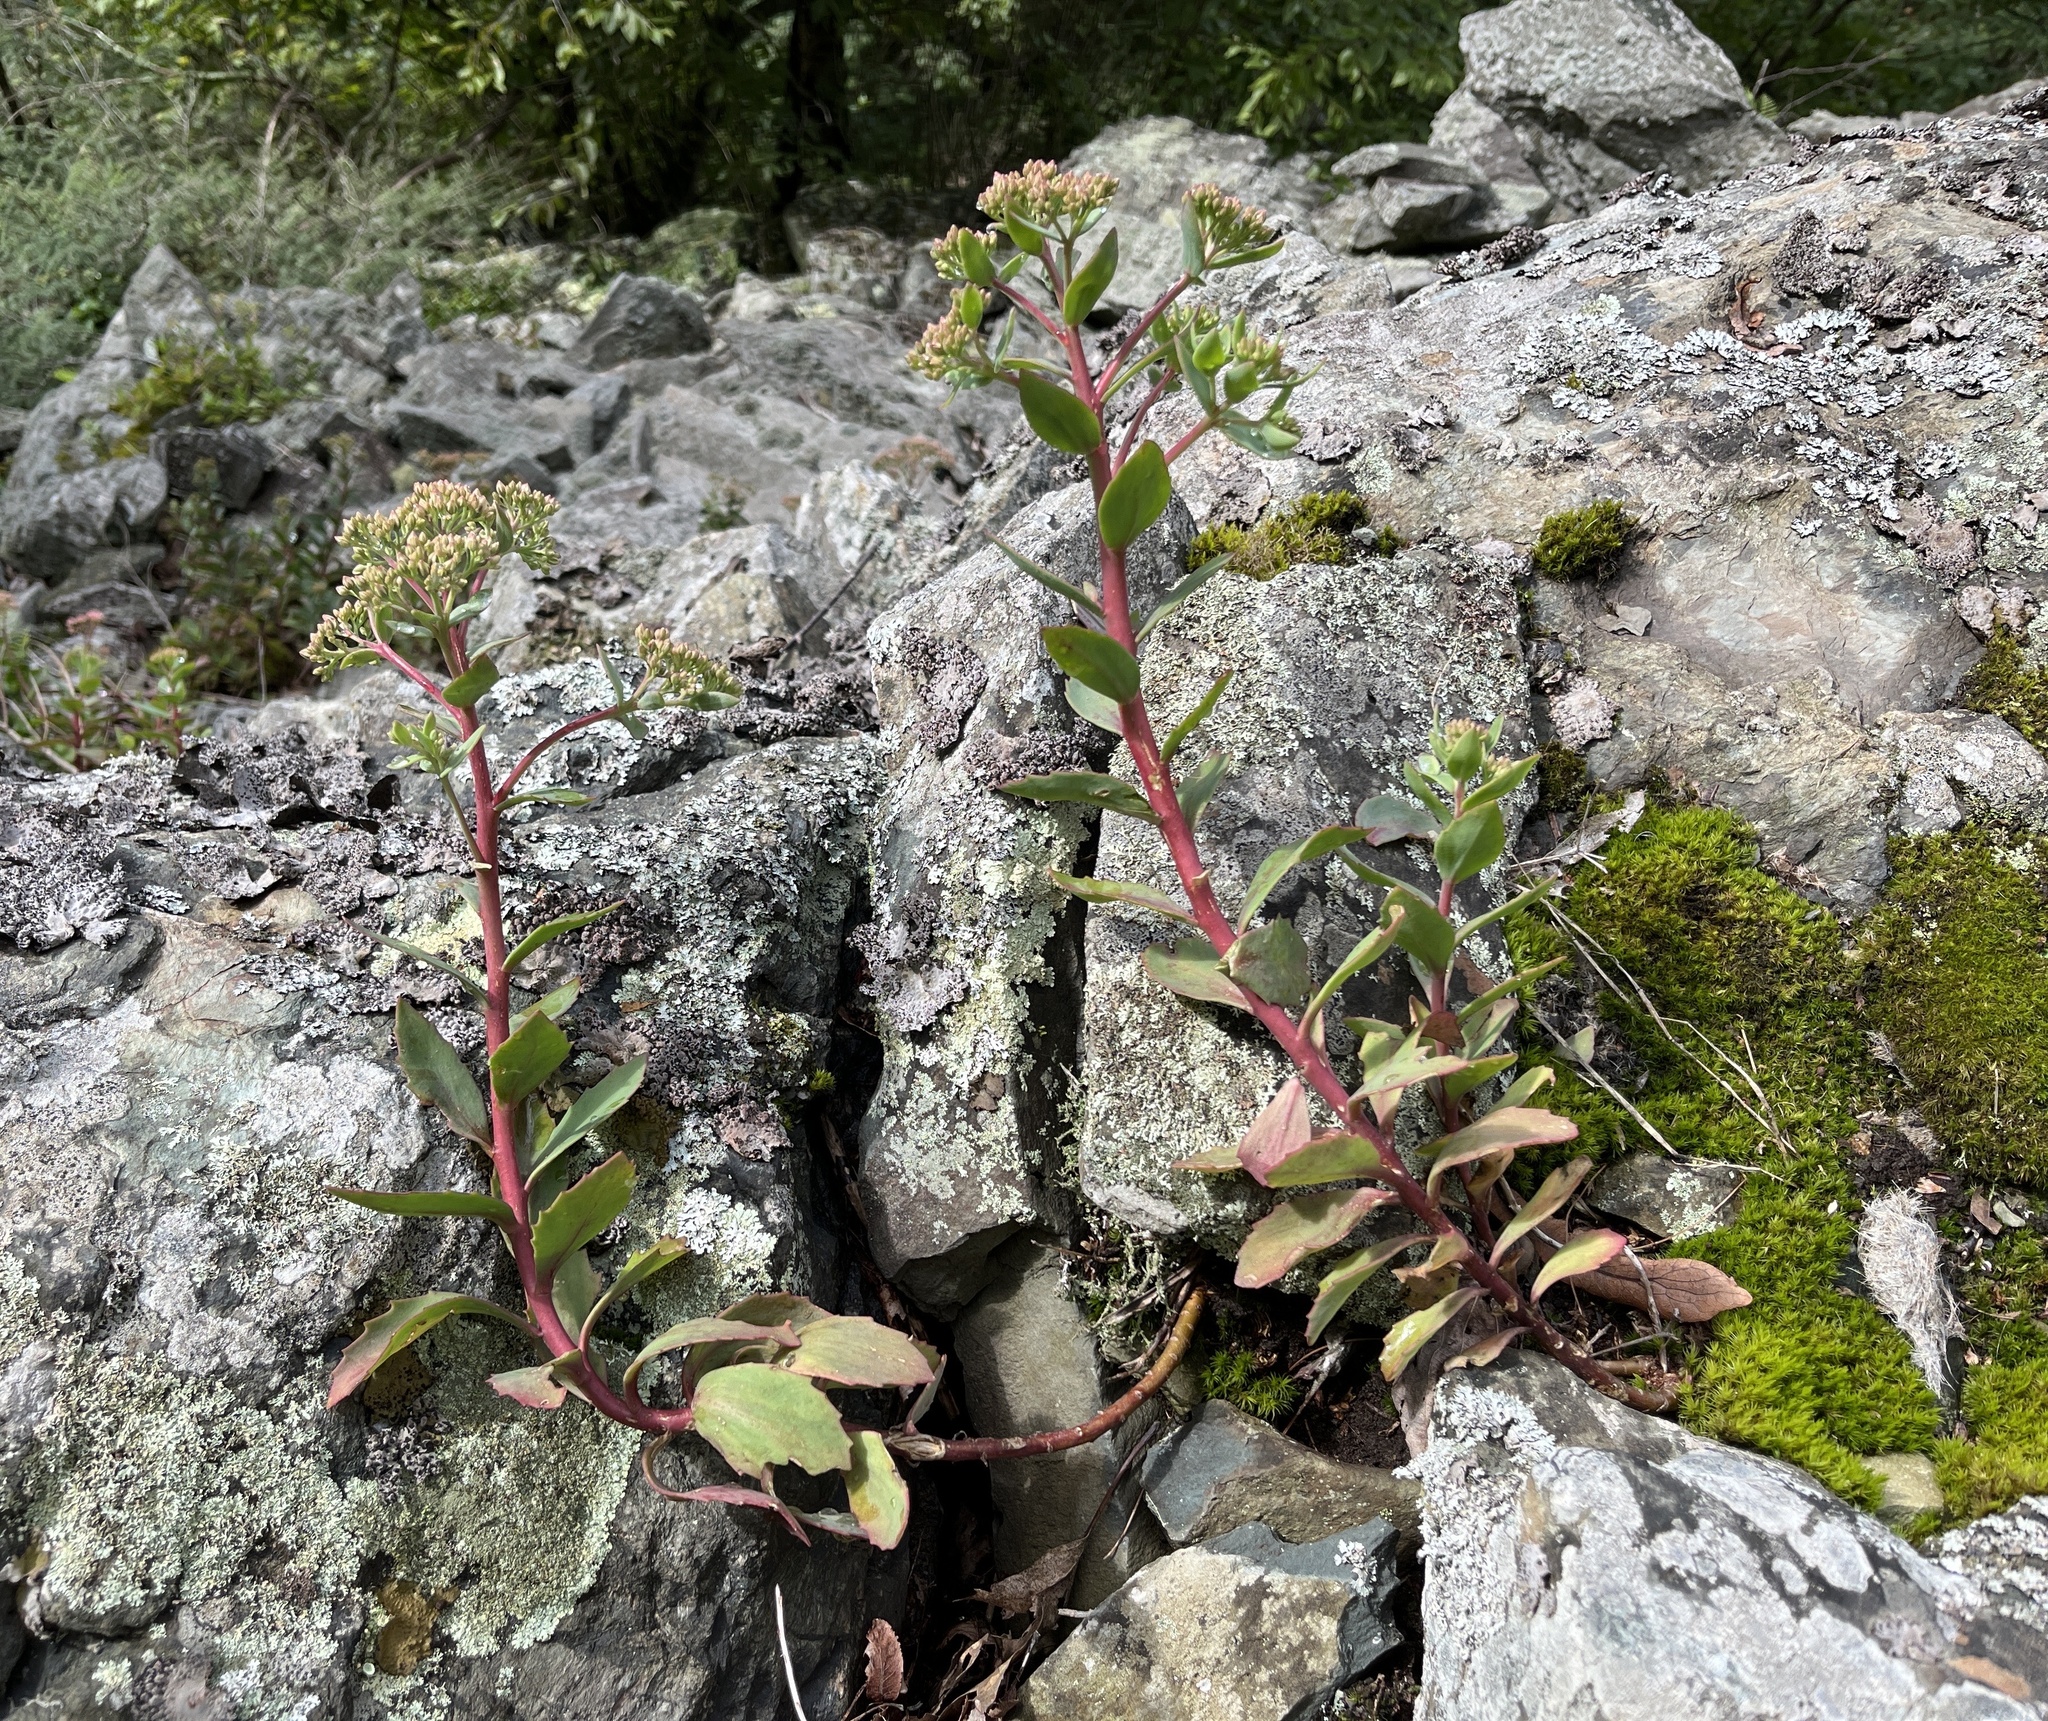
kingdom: Plantae
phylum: Tracheophyta
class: Magnoliopsida
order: Saxifragales
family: Crassulaceae
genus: Hylotelephium
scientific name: Hylotelephium telephioides
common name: Allegheny stonecrop
